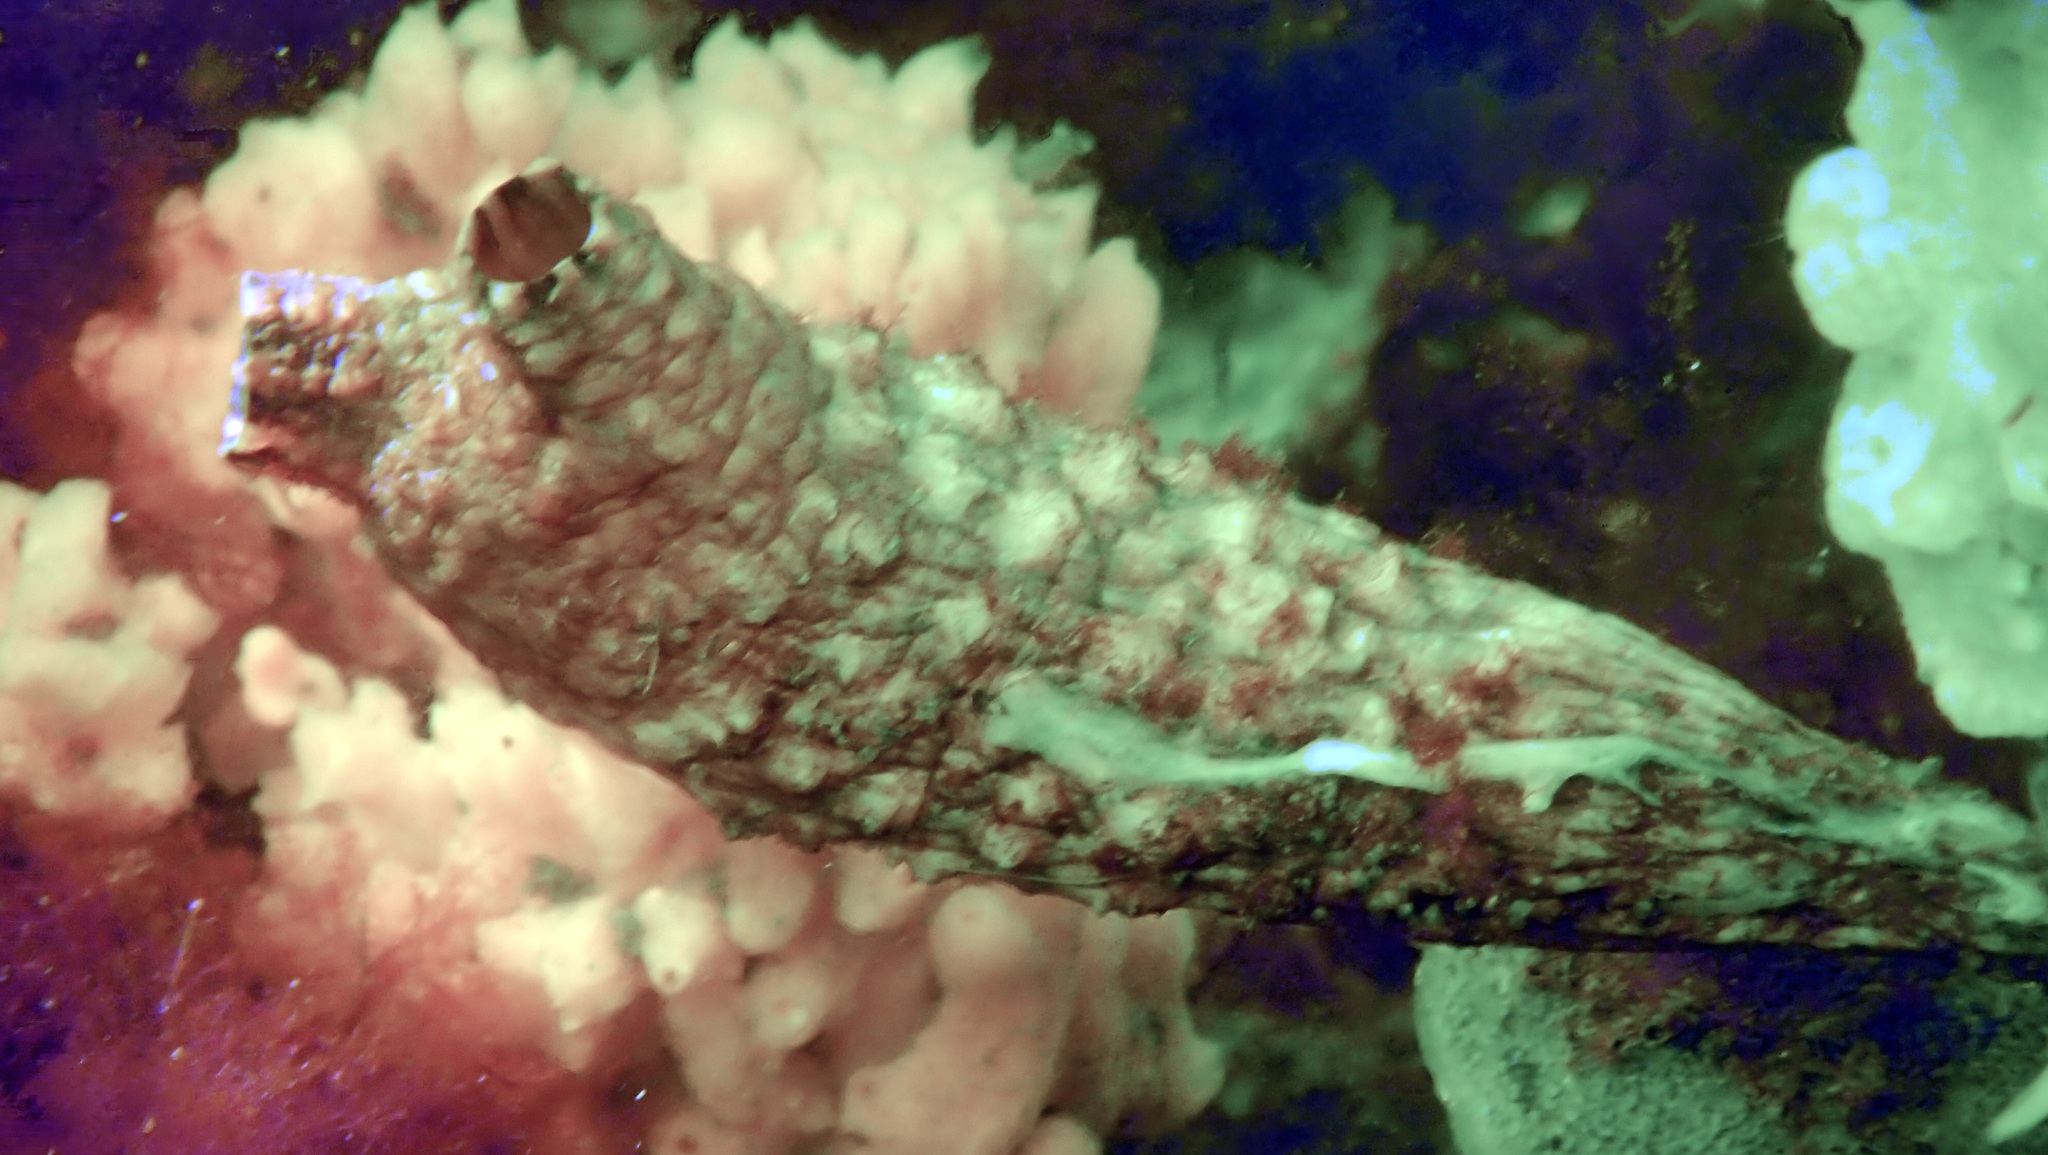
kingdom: Animalia
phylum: Chordata
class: Ascidiacea
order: Stolidobranchia
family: Styelidae
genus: Styela
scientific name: Styela clava
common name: Leathery sea squirt
